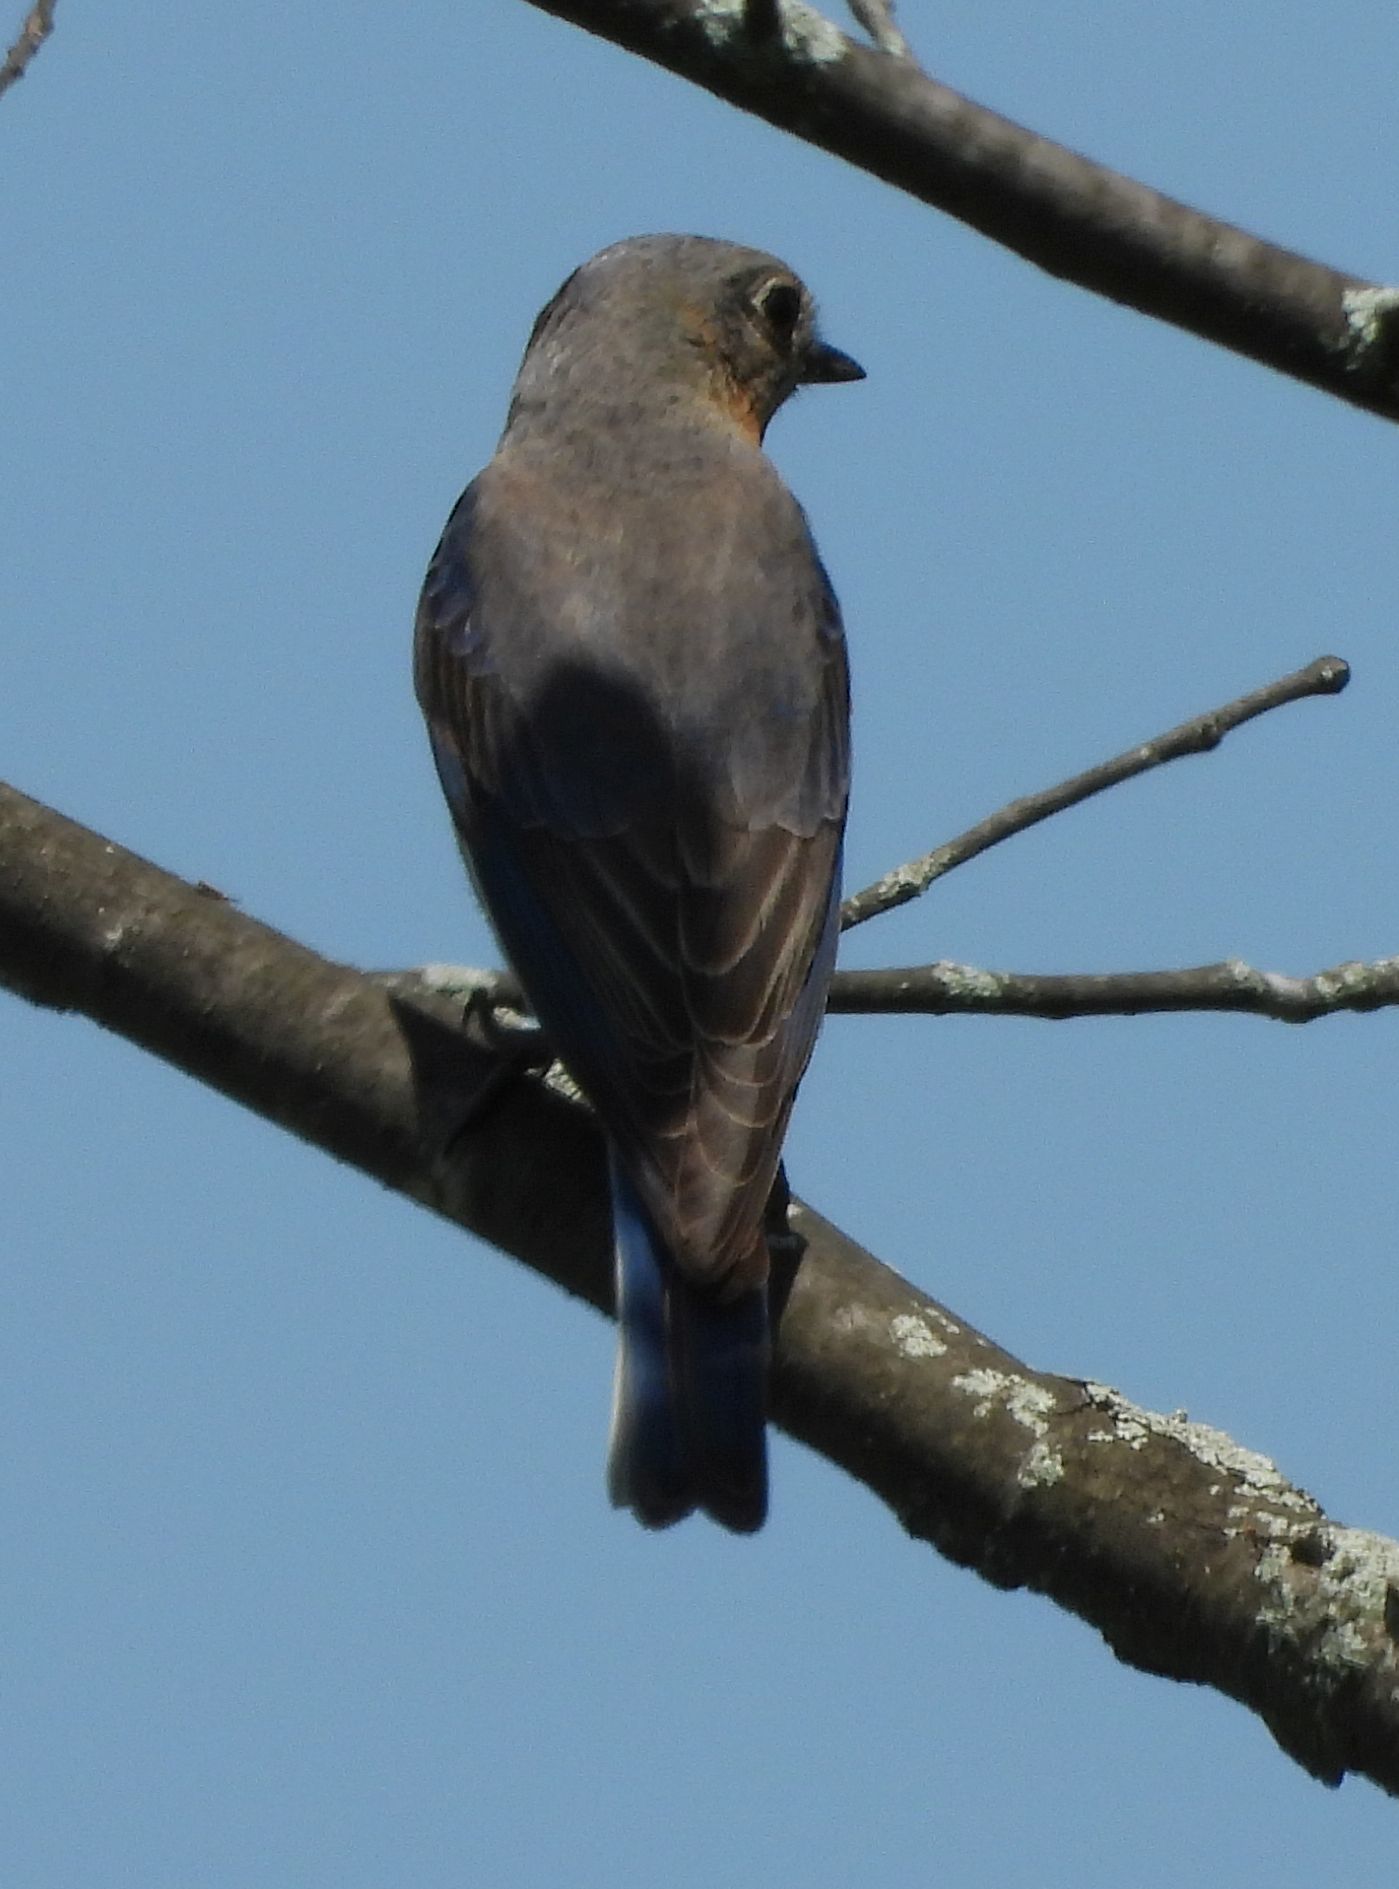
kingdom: Animalia
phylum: Chordata
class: Aves
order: Passeriformes
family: Turdidae
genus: Sialia
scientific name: Sialia sialis
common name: Eastern bluebird
